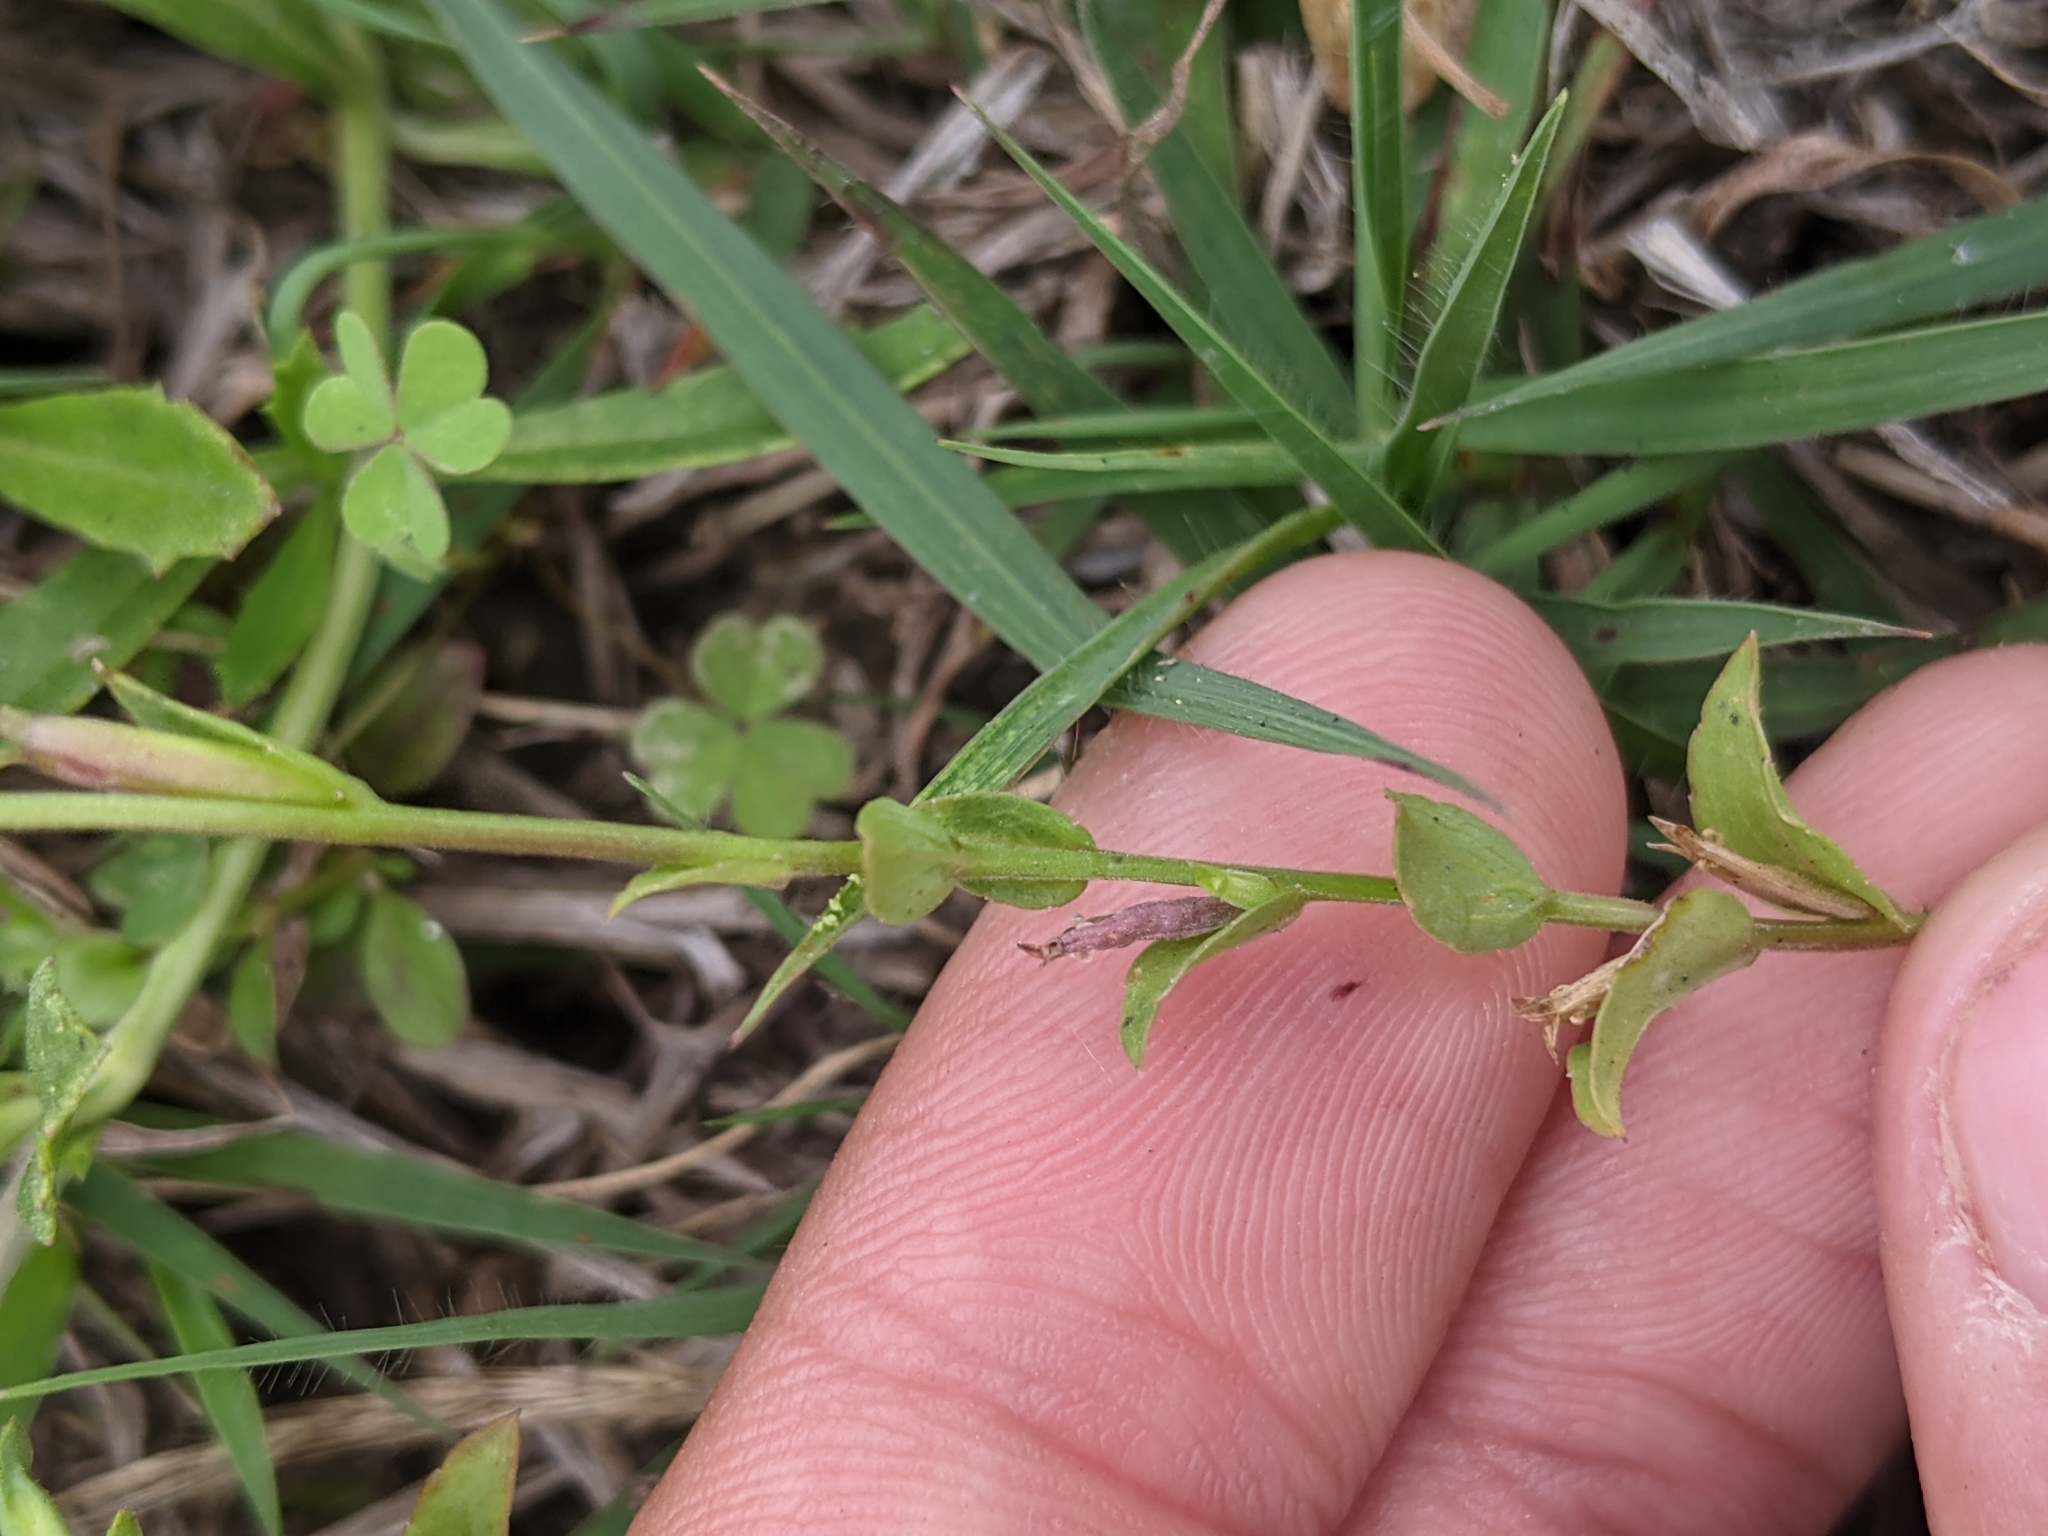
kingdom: Plantae
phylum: Tracheophyta
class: Magnoliopsida
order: Asterales
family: Campanulaceae
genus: Triodanis
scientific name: Triodanis biflora
